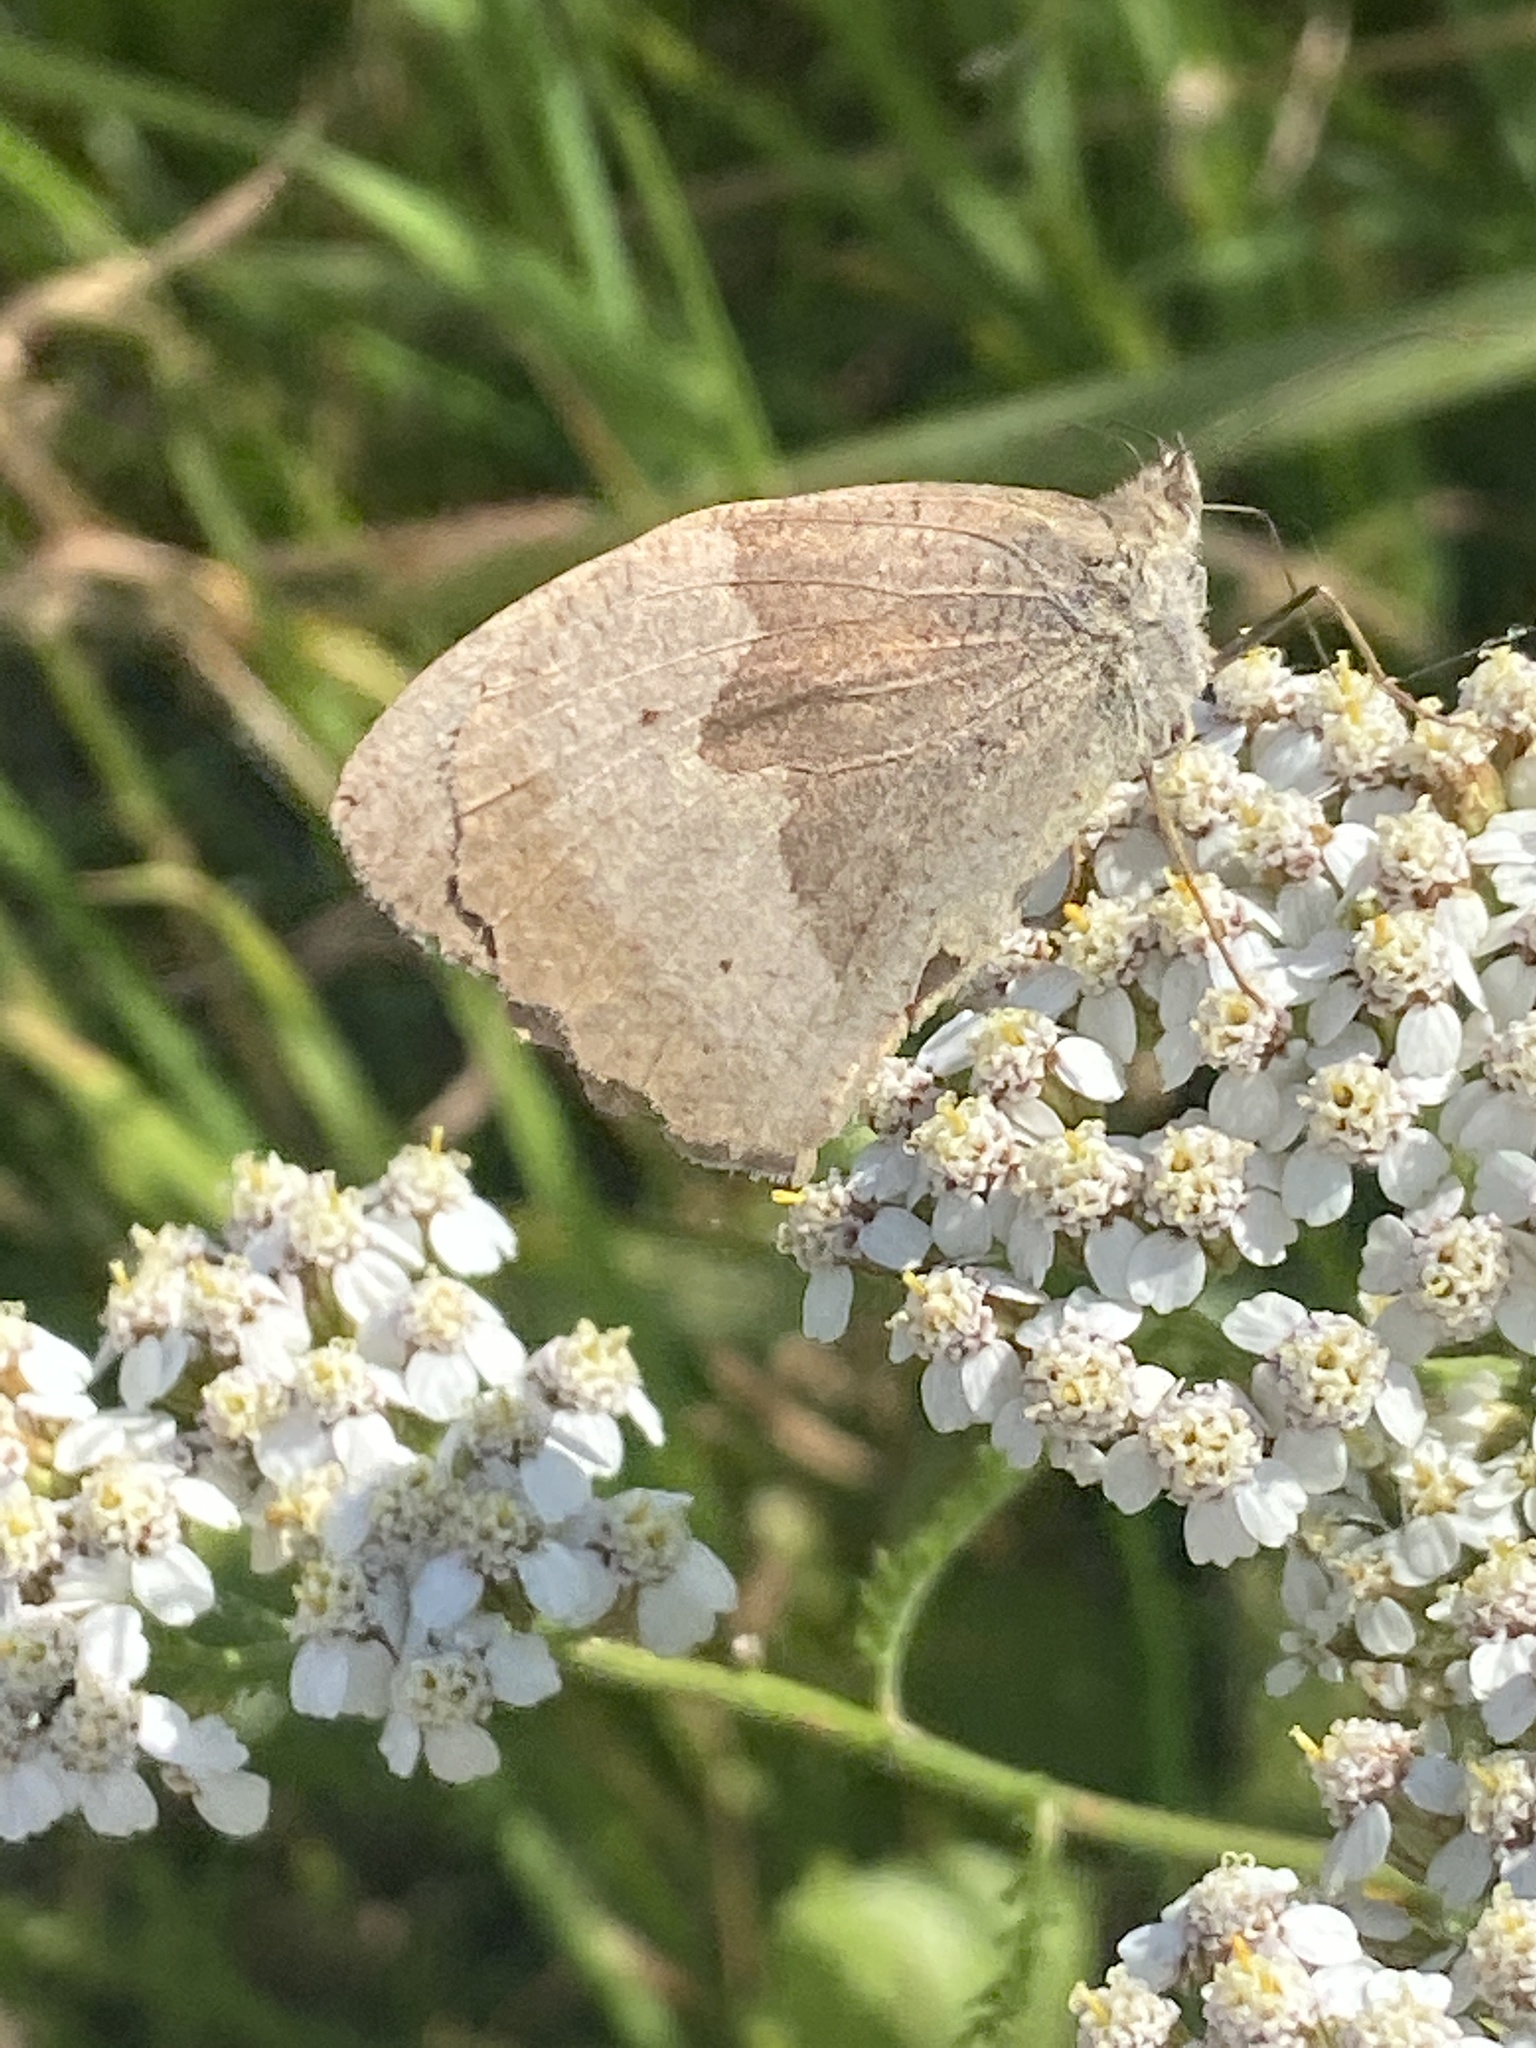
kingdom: Animalia
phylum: Arthropoda
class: Insecta
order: Lepidoptera
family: Nymphalidae
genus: Maniola
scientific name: Maniola jurtina
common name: Meadow brown
